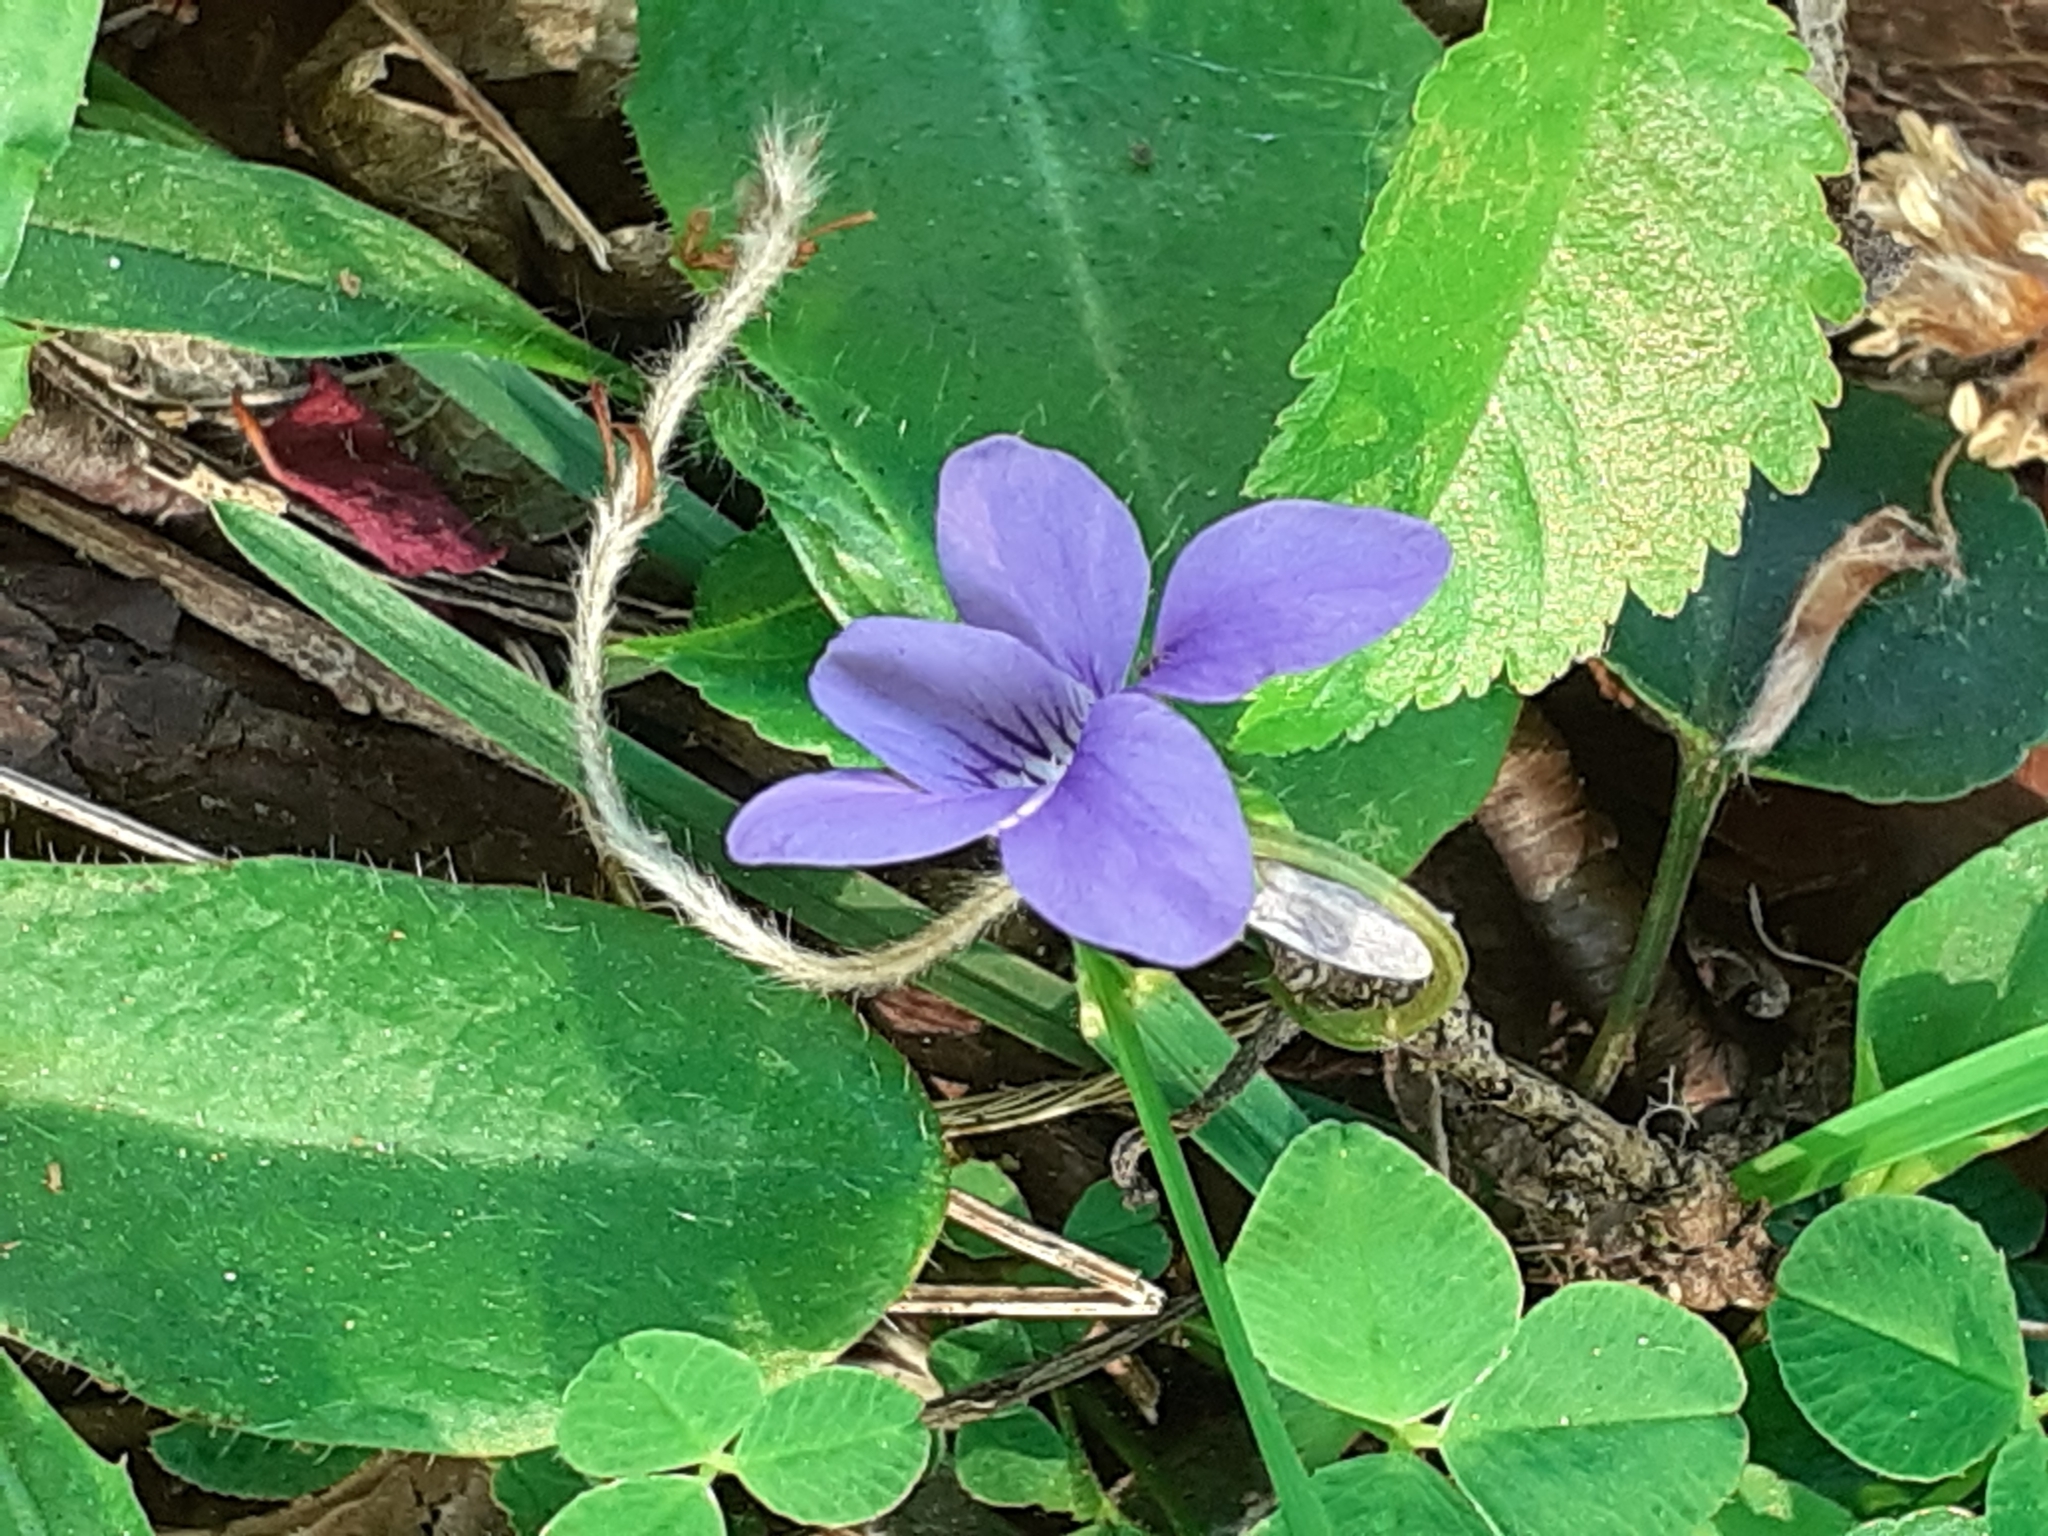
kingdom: Plantae
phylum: Tracheophyta
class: Magnoliopsida
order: Malpighiales
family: Violaceae
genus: Viola
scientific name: Viola riviniana
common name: Common dog-violet
